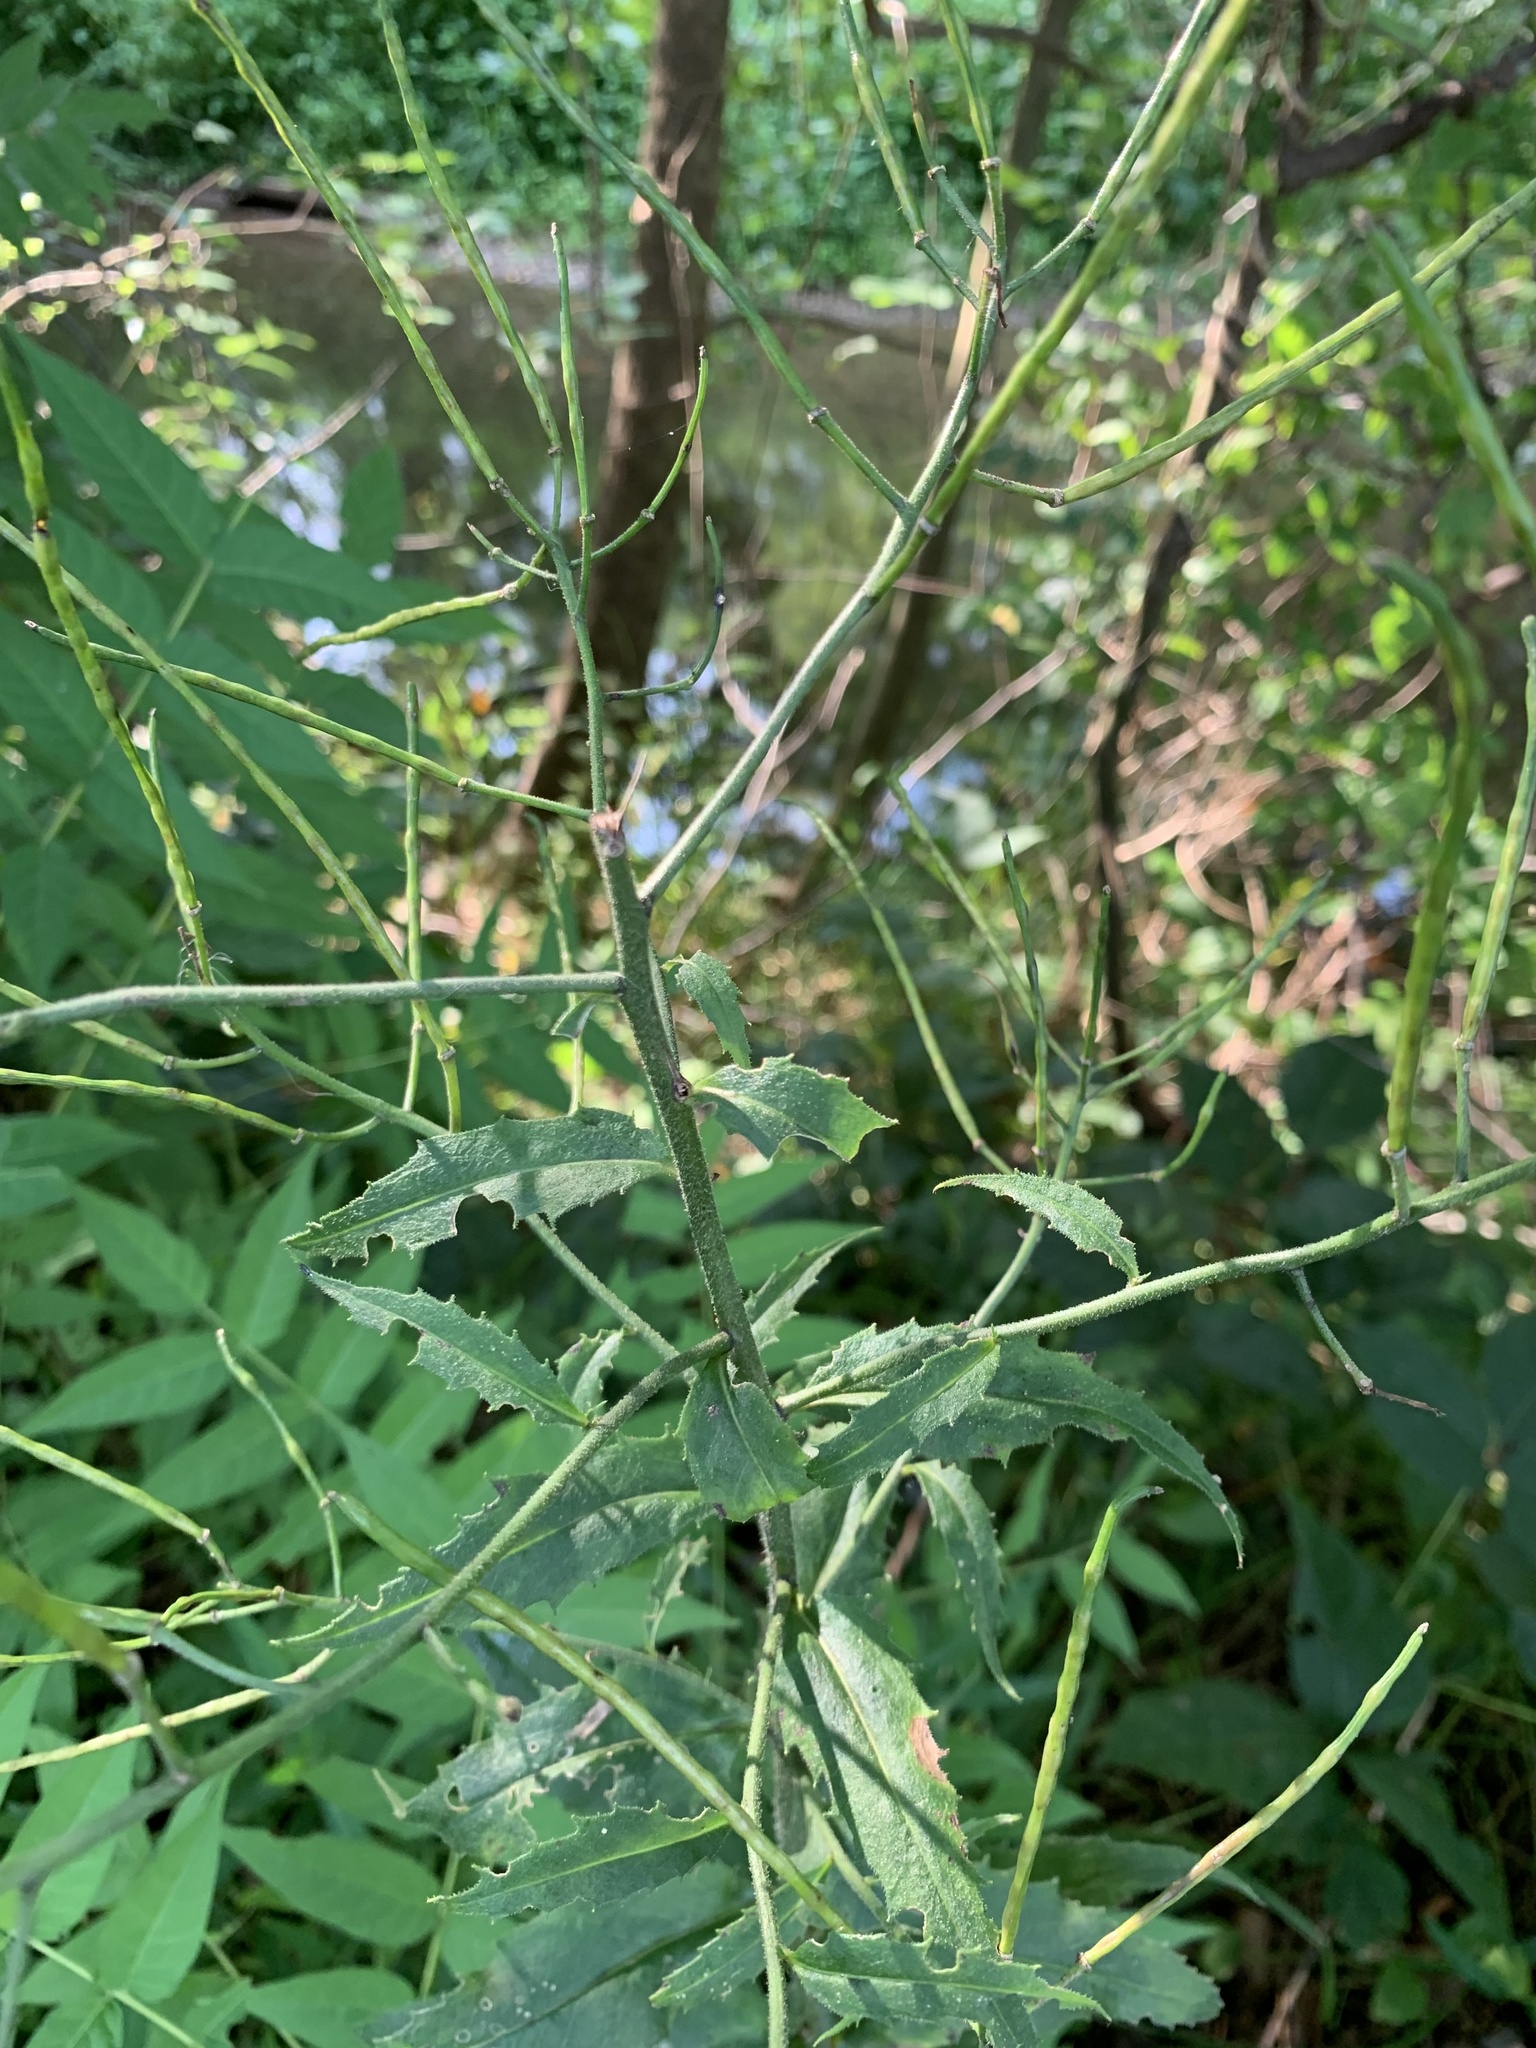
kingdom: Plantae
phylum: Tracheophyta
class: Magnoliopsida
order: Brassicales
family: Brassicaceae
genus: Hesperis
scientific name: Hesperis matronalis
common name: Dame's-violet
